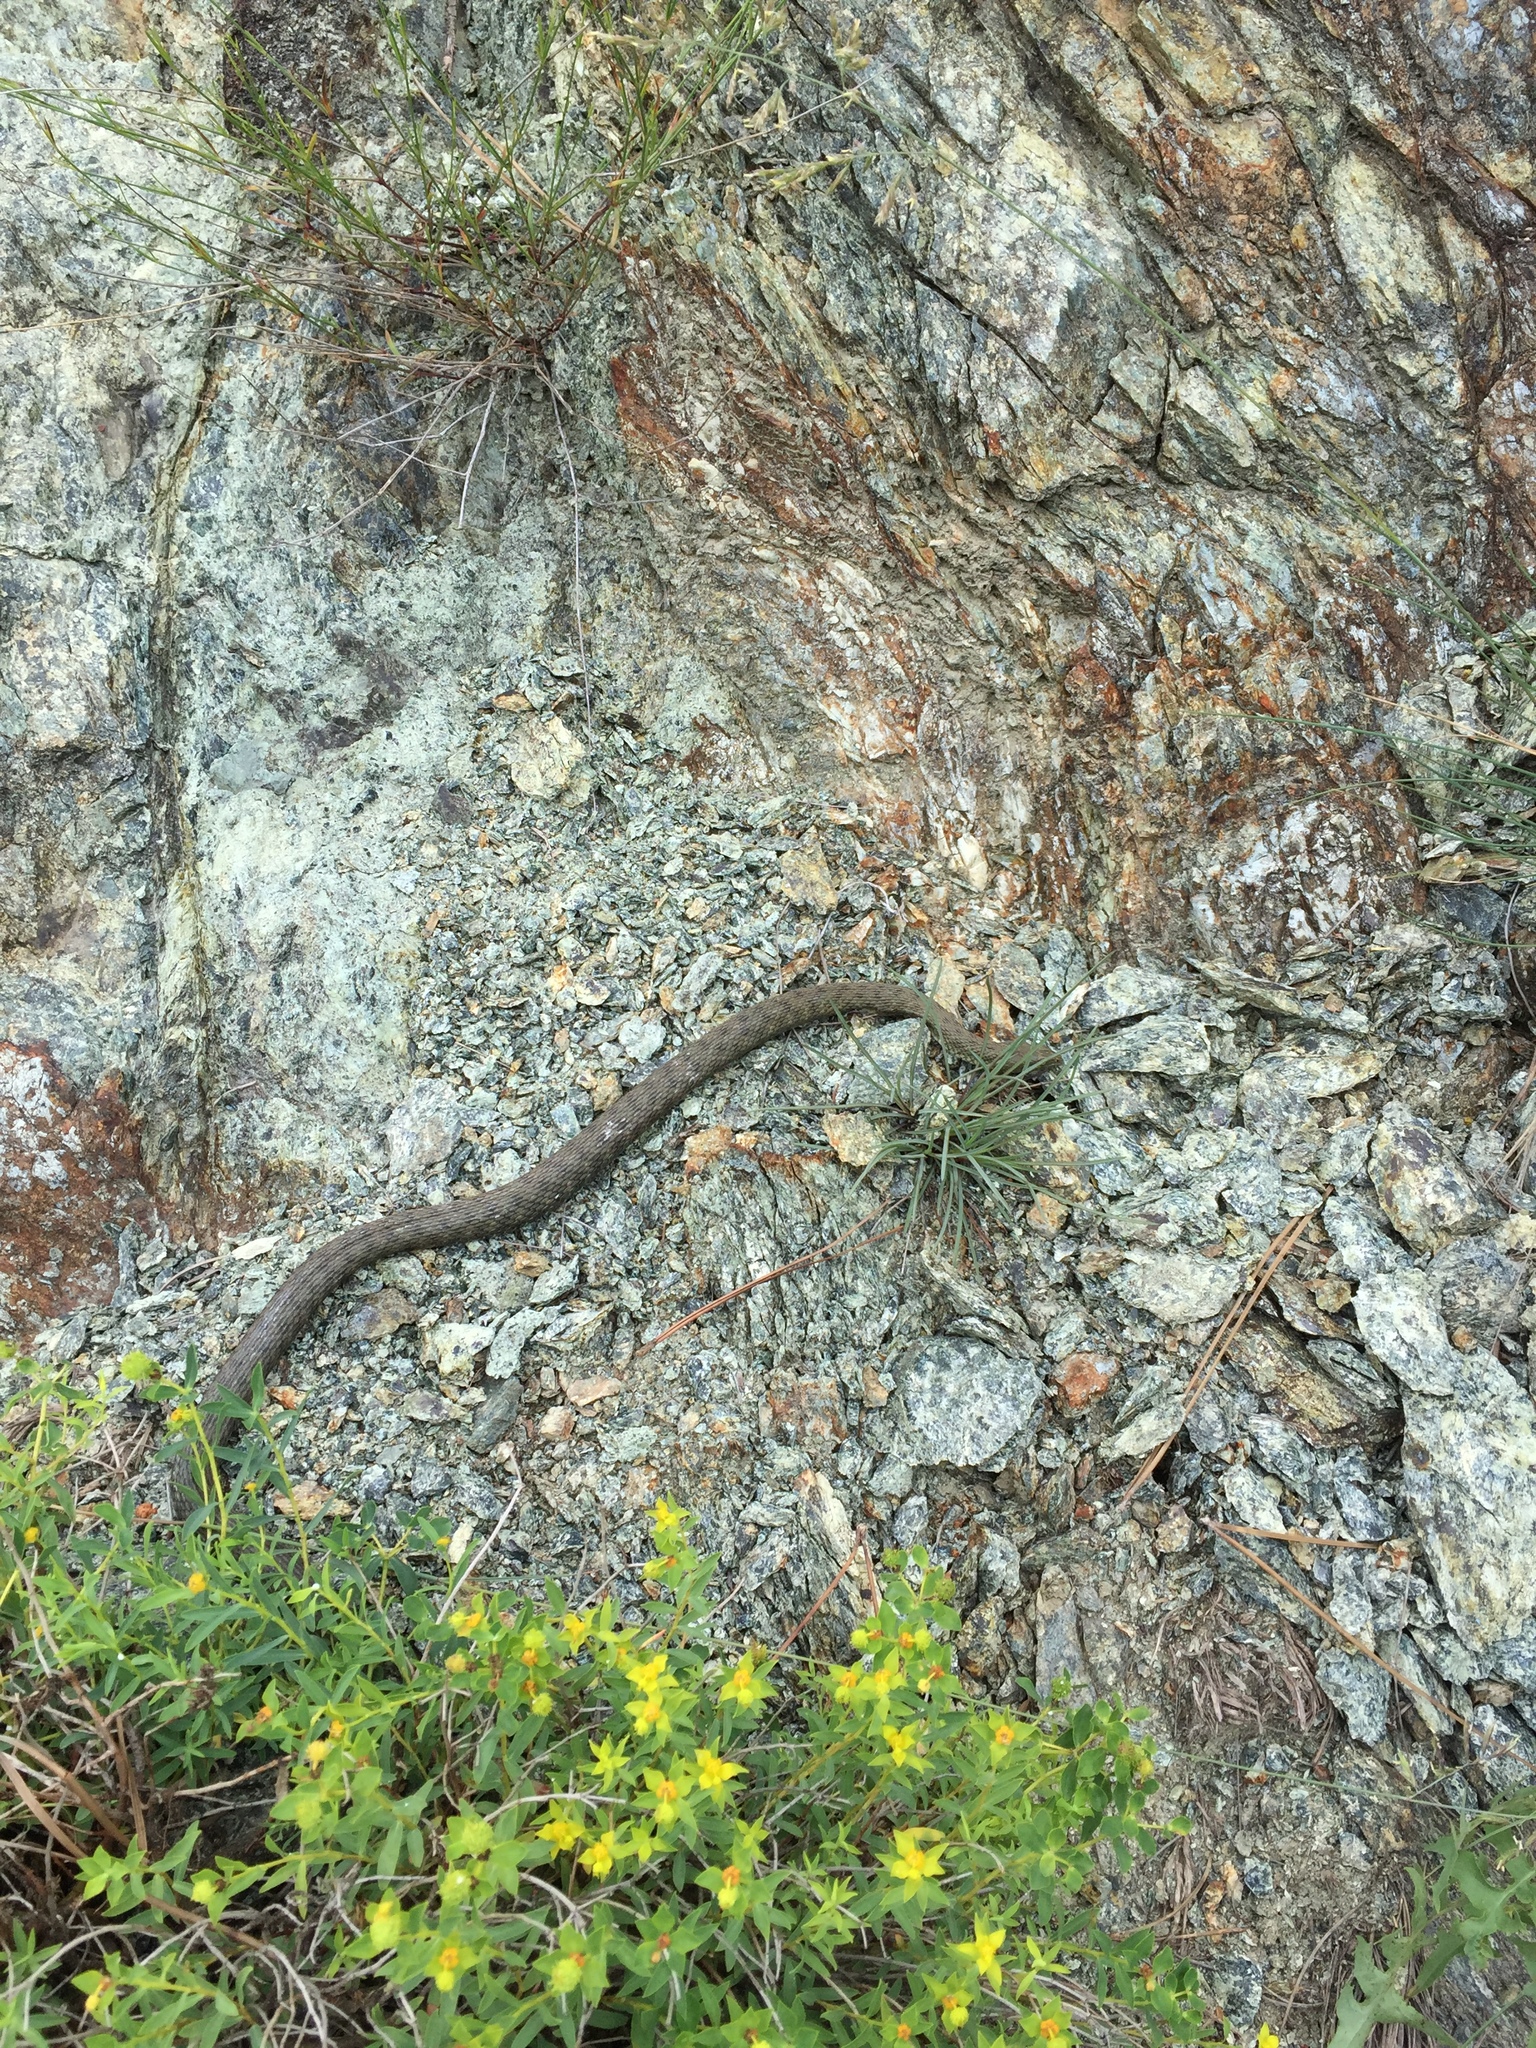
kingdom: Animalia
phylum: Chordata
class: Squamata
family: Colubridae
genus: Natrix
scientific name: Natrix tessellata
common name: Dice snake
